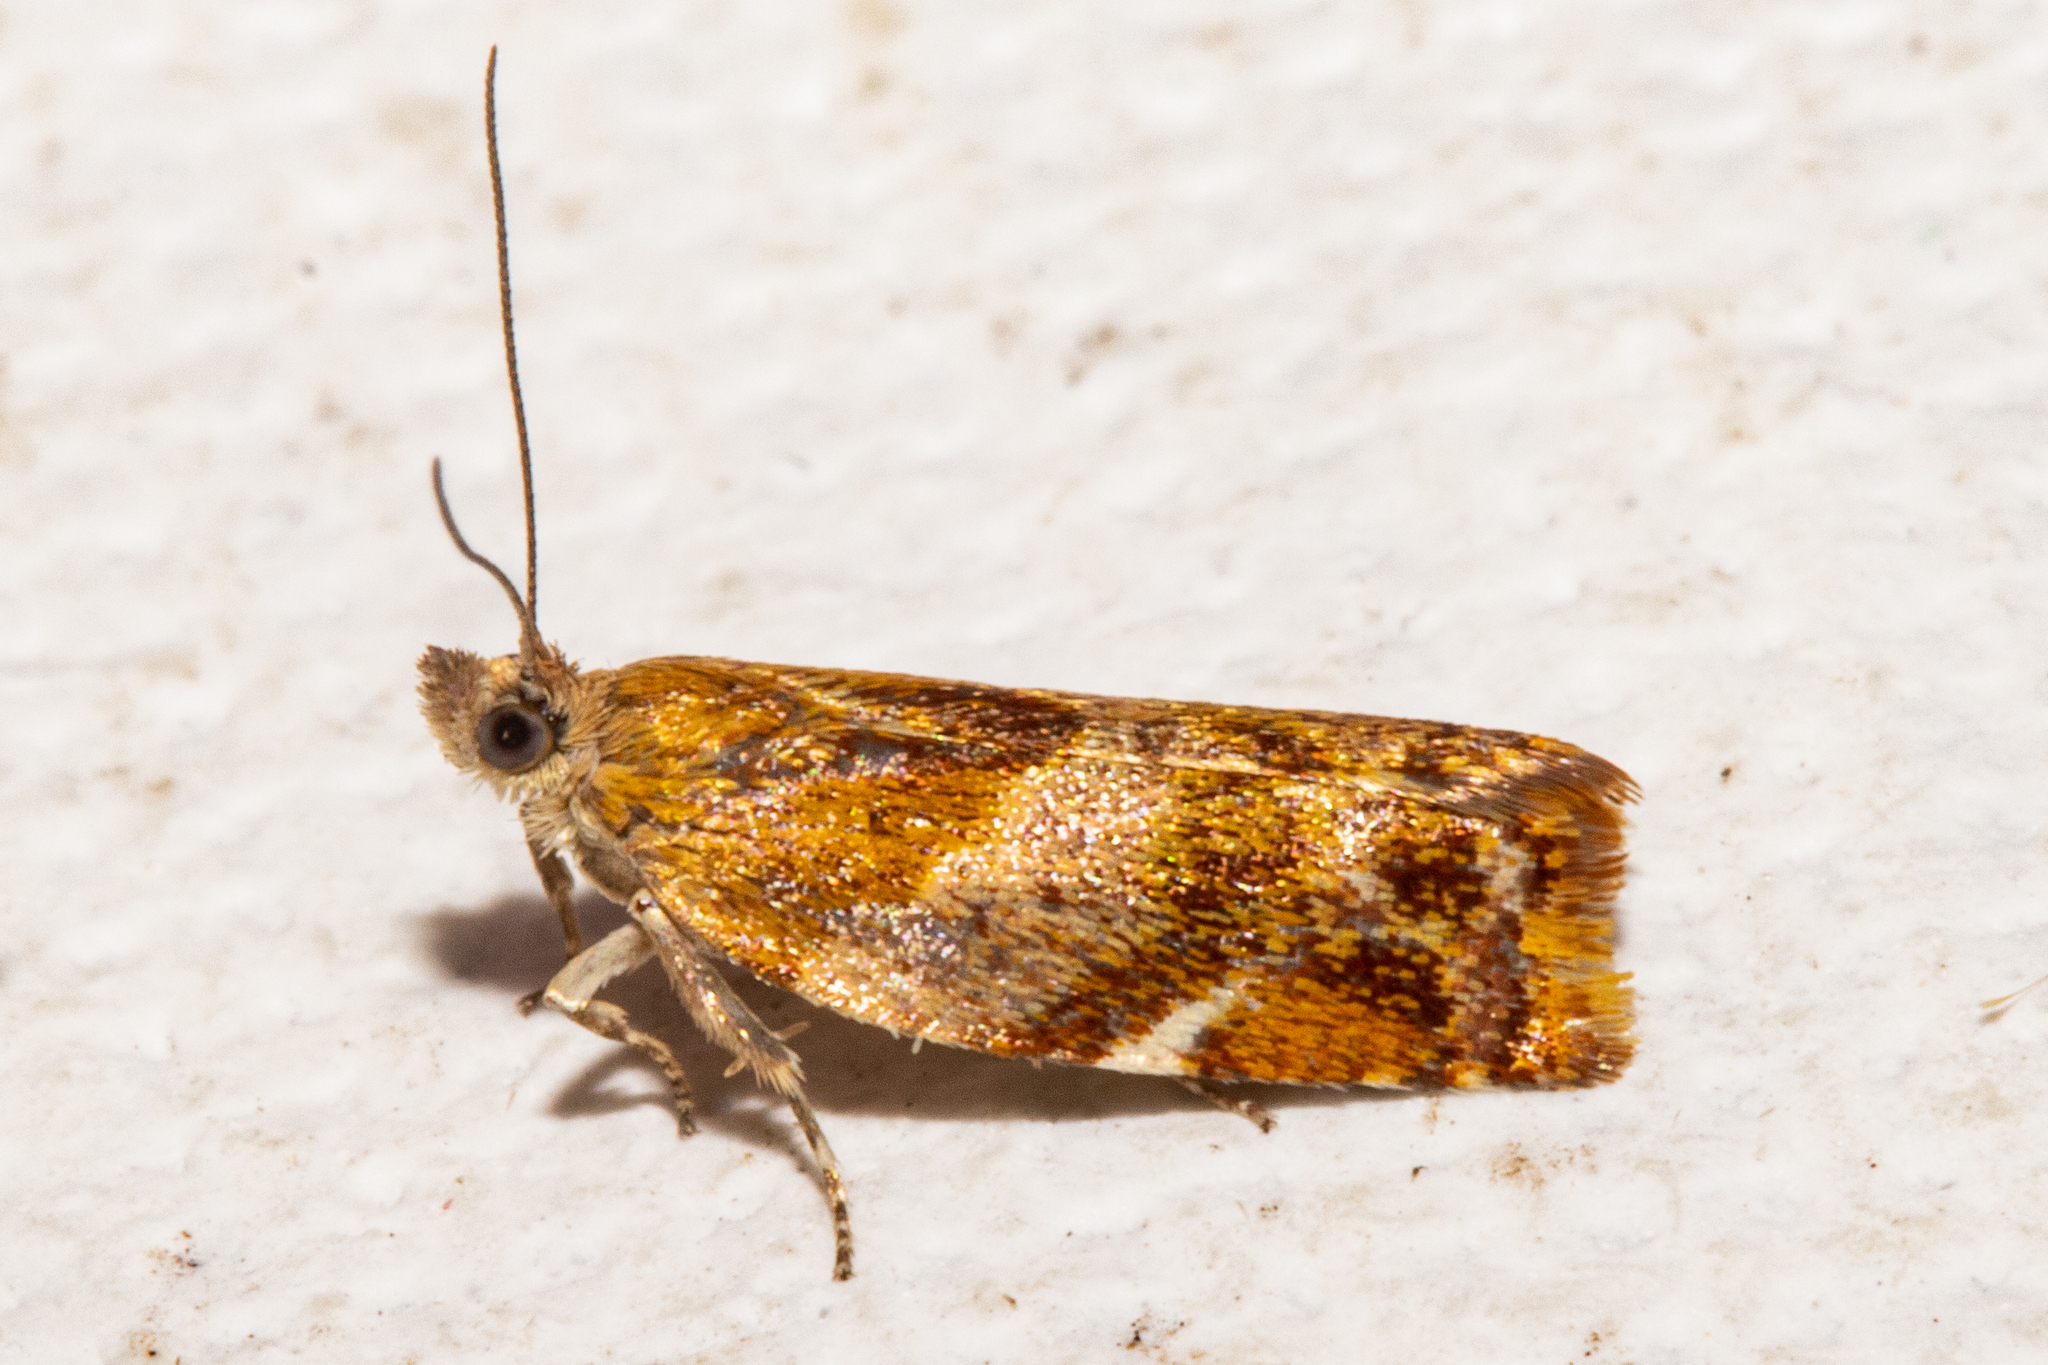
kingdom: Animalia
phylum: Arthropoda
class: Insecta
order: Lepidoptera
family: Tortricidae
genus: Epichorista
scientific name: Epichorista emphanes
